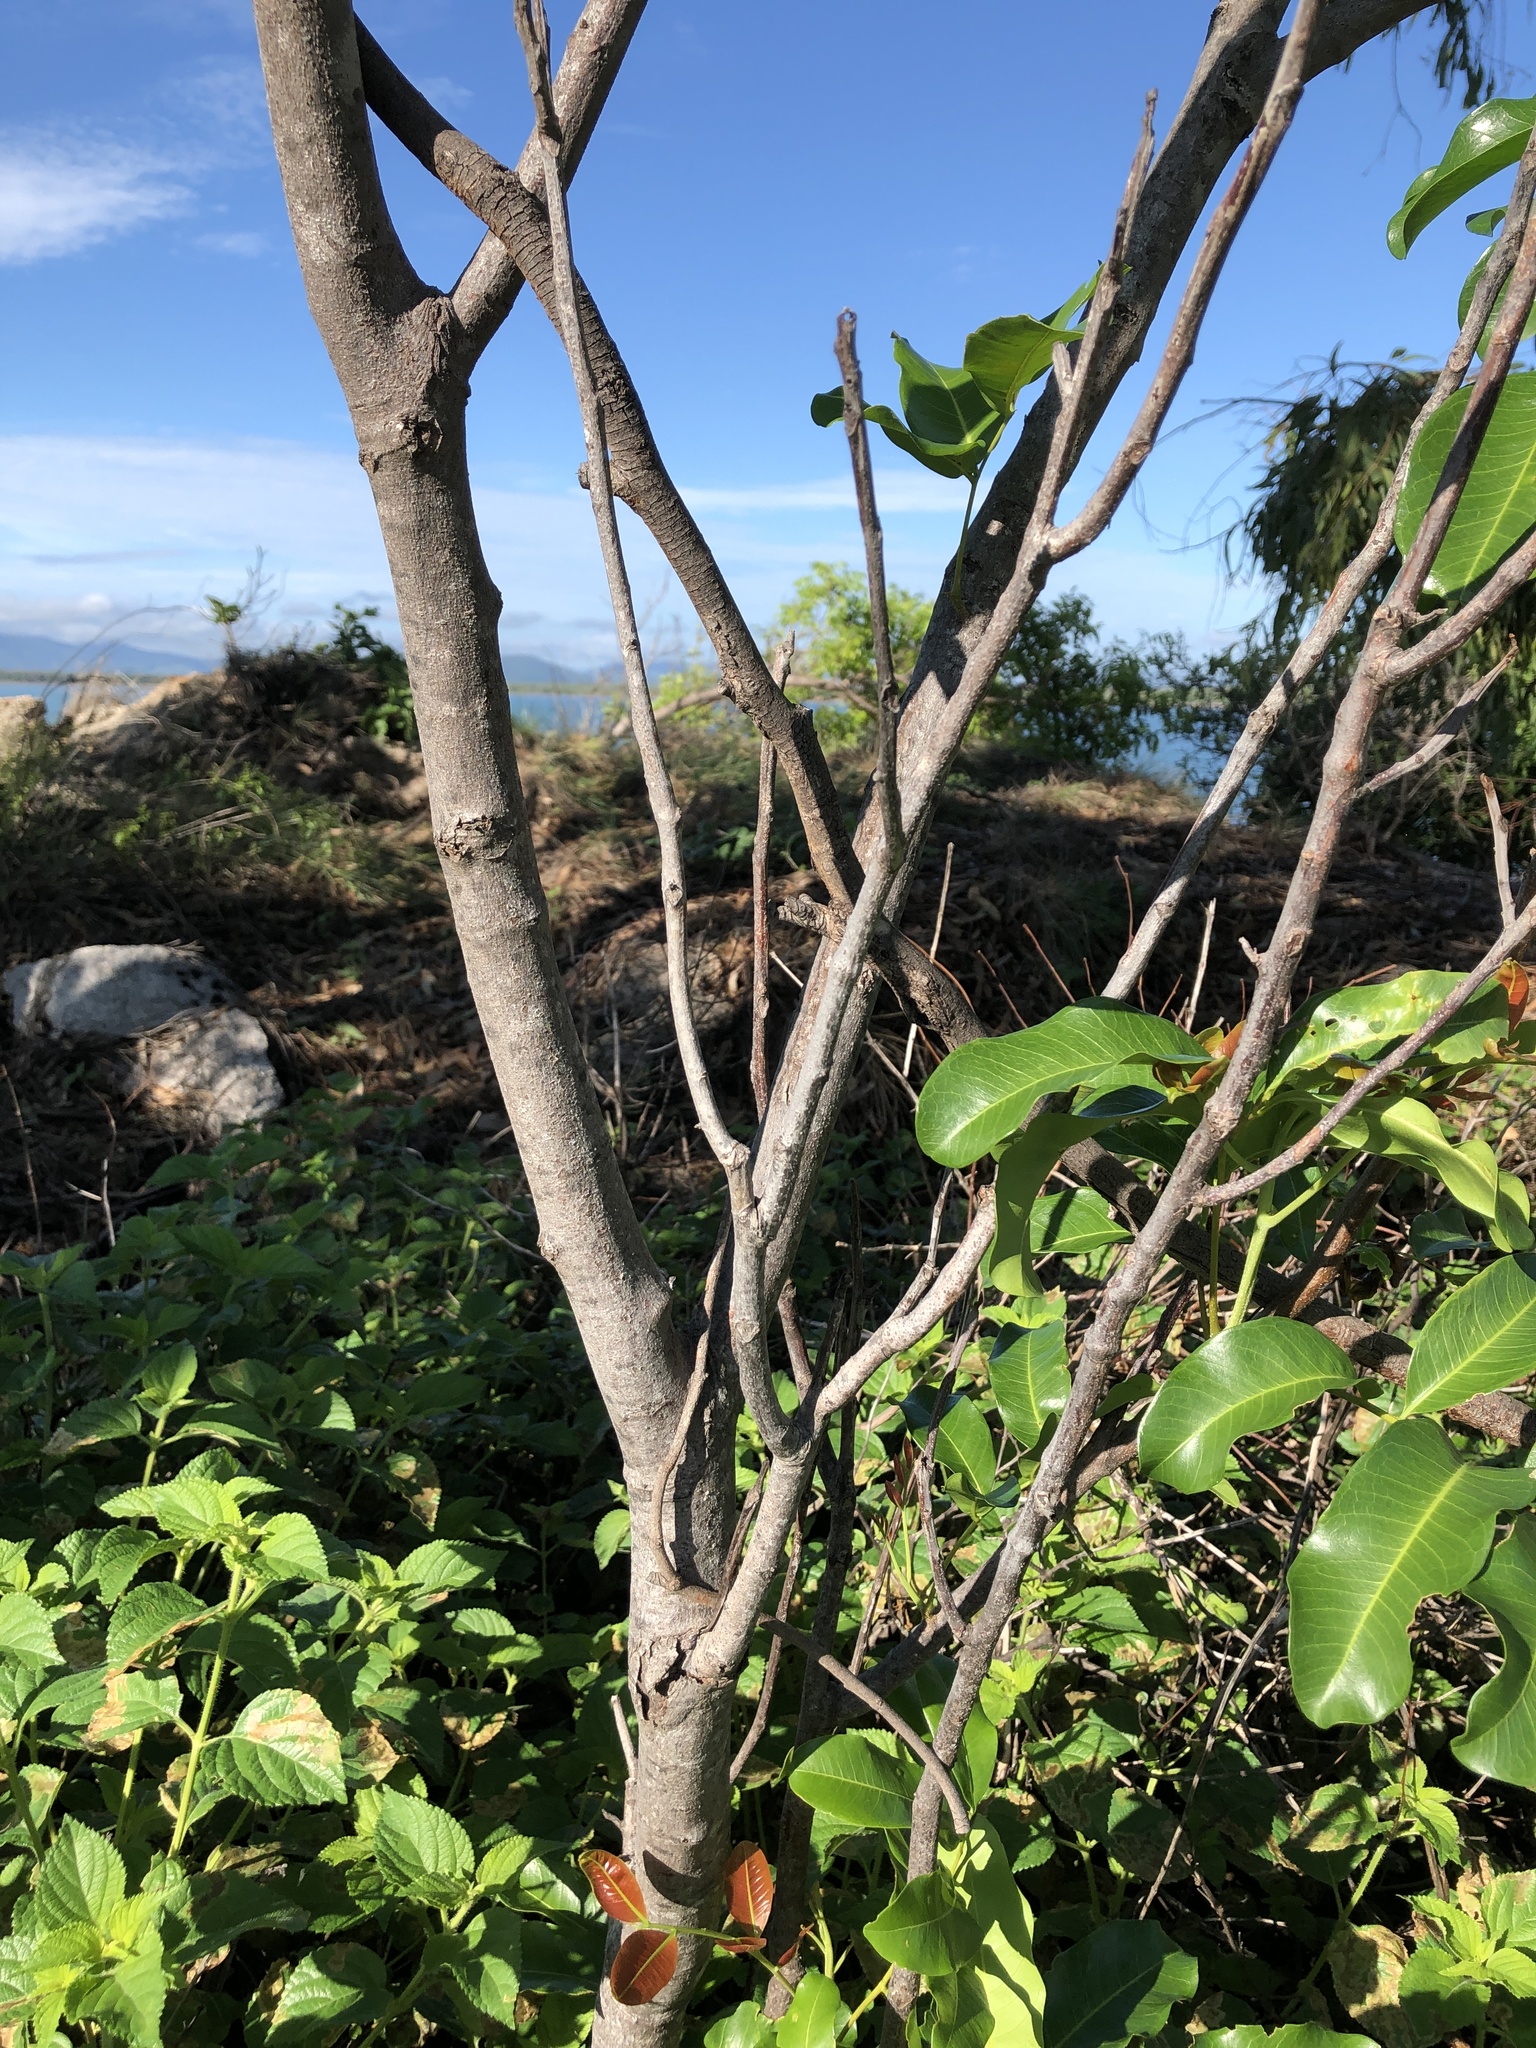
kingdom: Plantae
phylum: Tracheophyta
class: Magnoliopsida
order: Sapindales
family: Sapindaceae
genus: Cupaniopsis
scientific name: Cupaniopsis anacardioides
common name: Carrotwood
